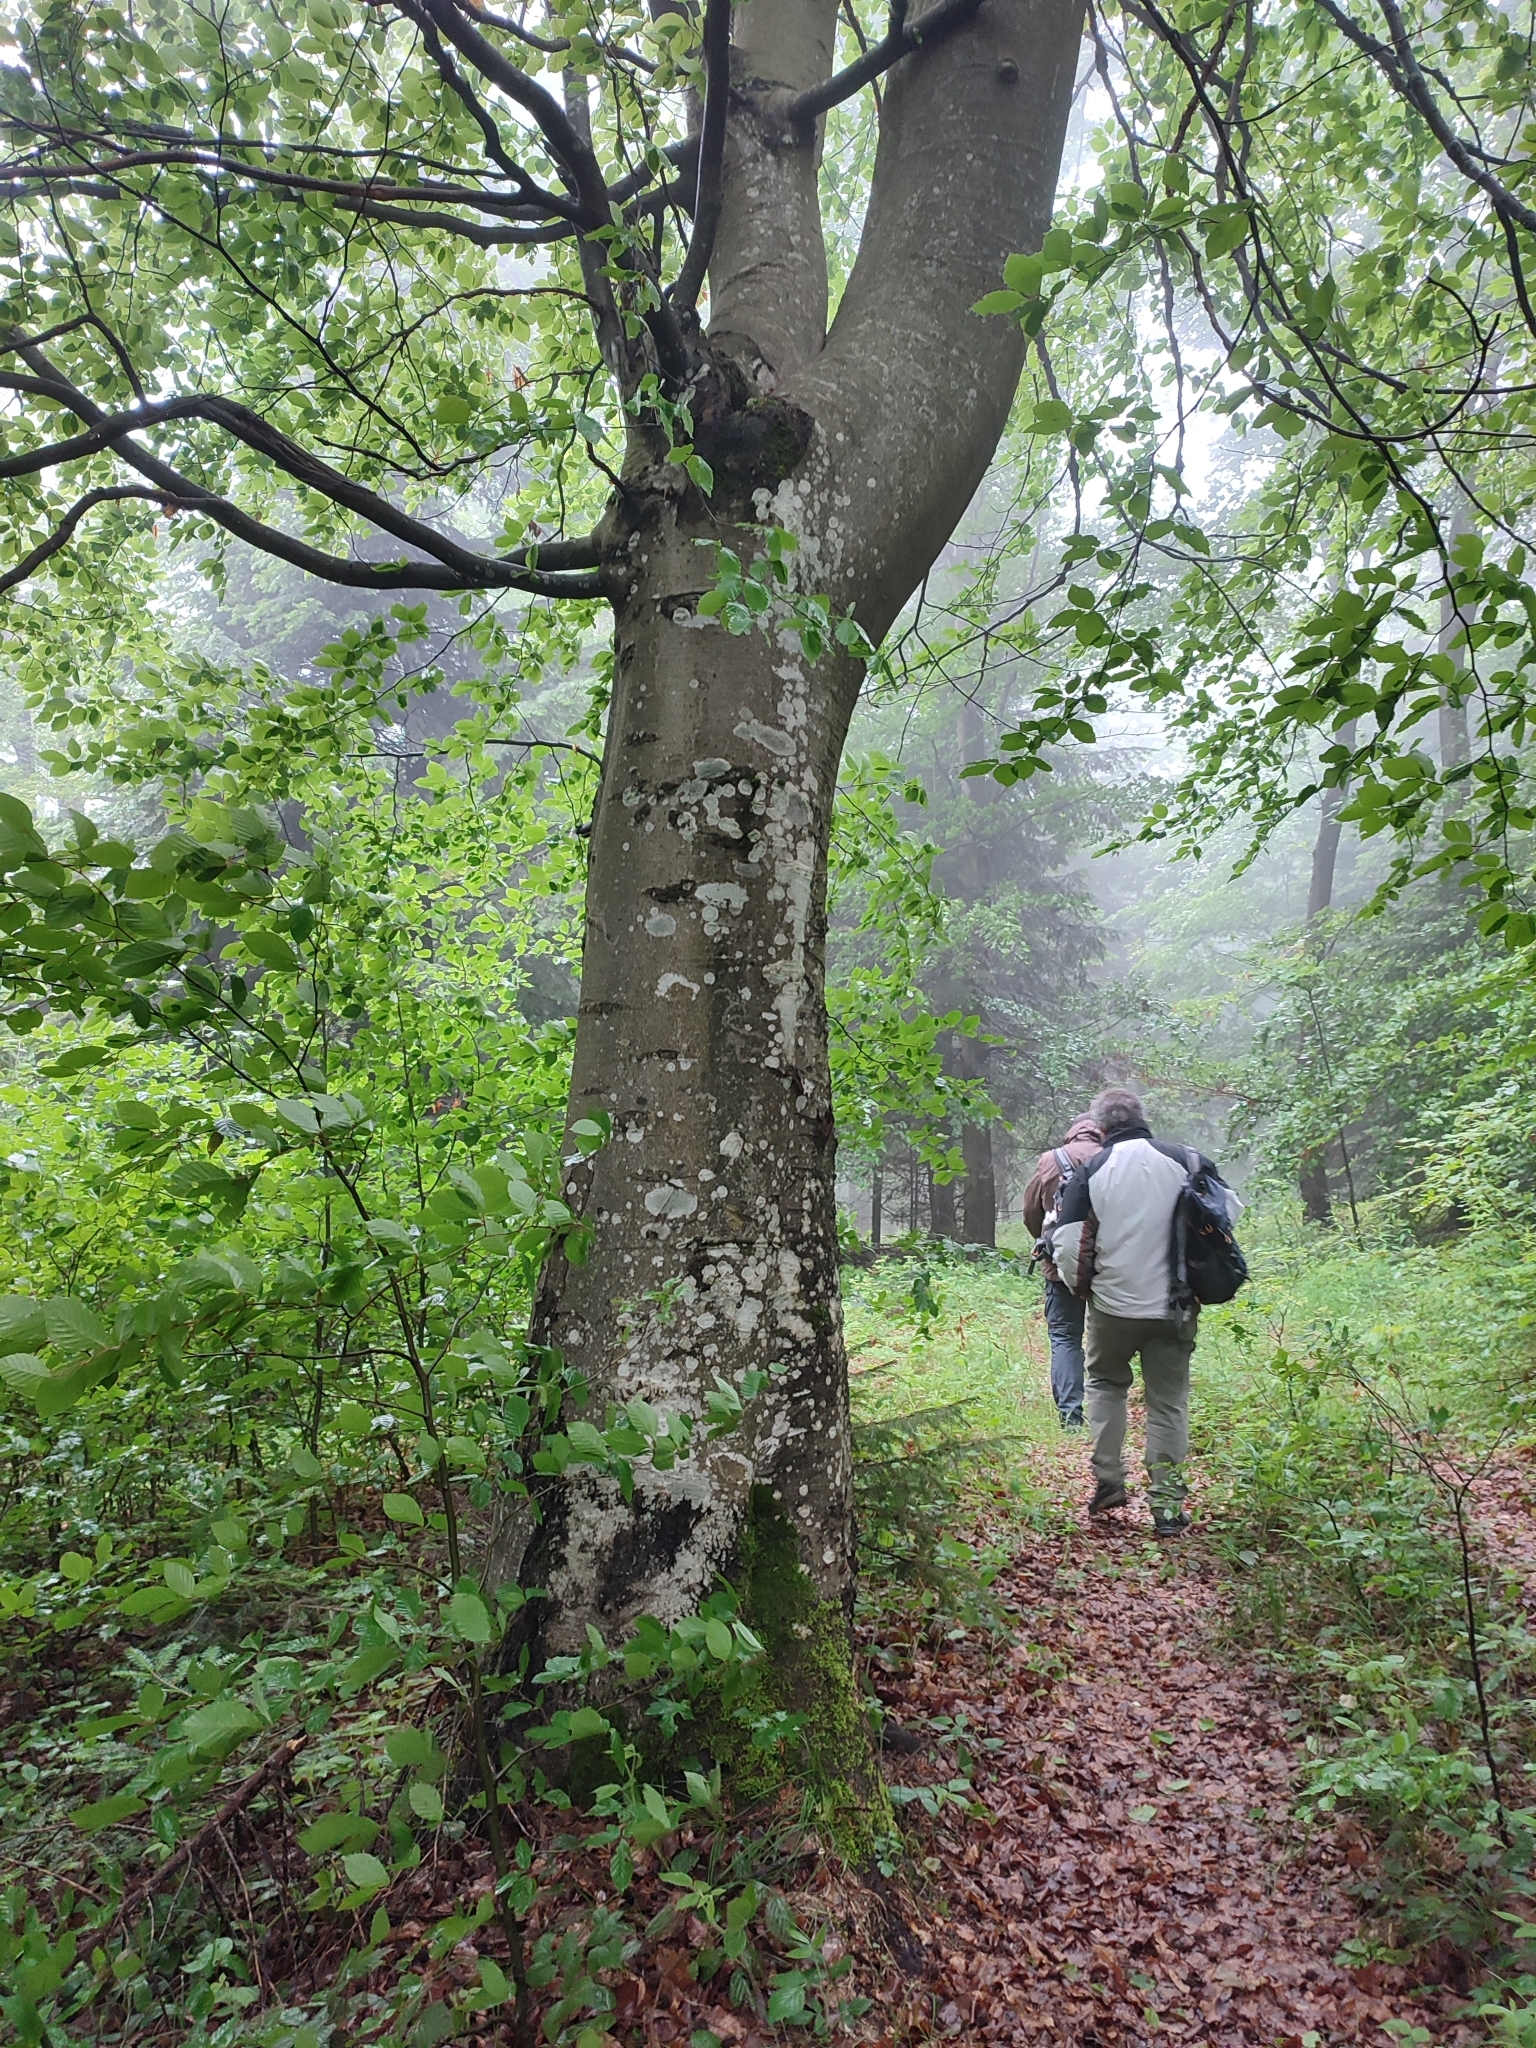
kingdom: Plantae
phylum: Tracheophyta
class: Magnoliopsida
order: Fagales
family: Fagaceae
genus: Fagus
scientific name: Fagus sylvatica
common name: Beech
